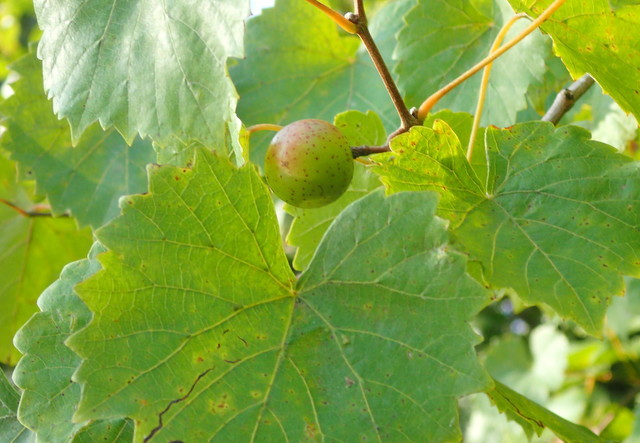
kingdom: Plantae
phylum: Tracheophyta
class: Magnoliopsida
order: Vitales
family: Vitaceae
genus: Vitis
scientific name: Vitis rotundifolia
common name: Muscadine grape
